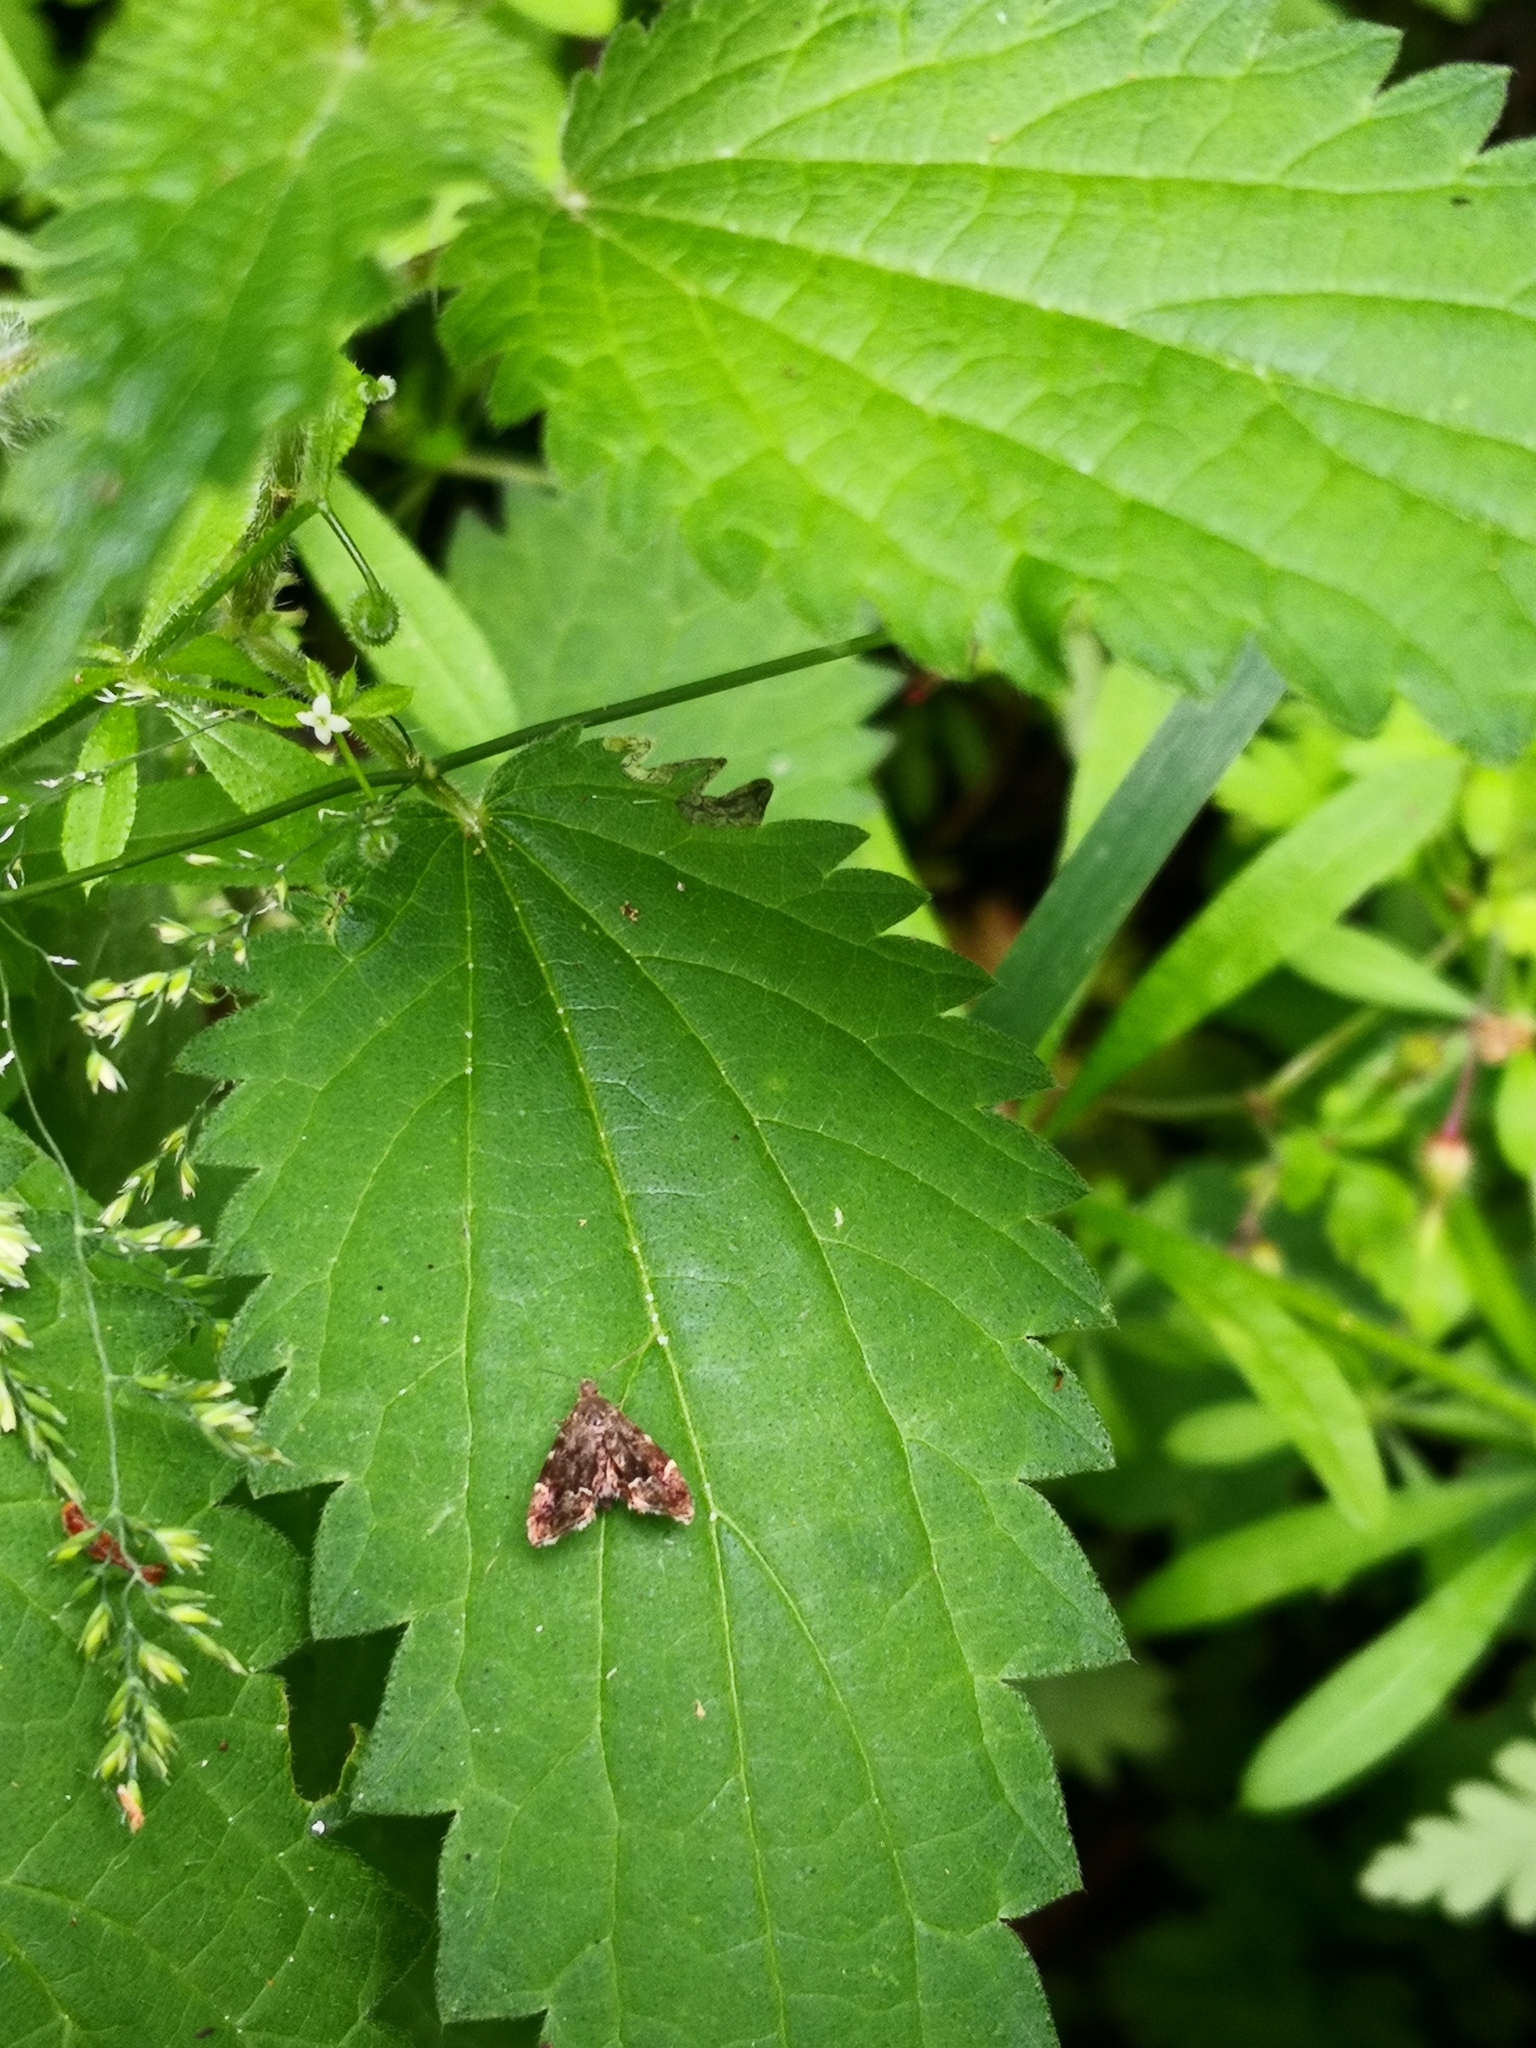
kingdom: Animalia
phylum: Arthropoda
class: Insecta
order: Lepidoptera
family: Choreutidae
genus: Anthophila
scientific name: Anthophila fabriciana
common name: Nettle-tap
